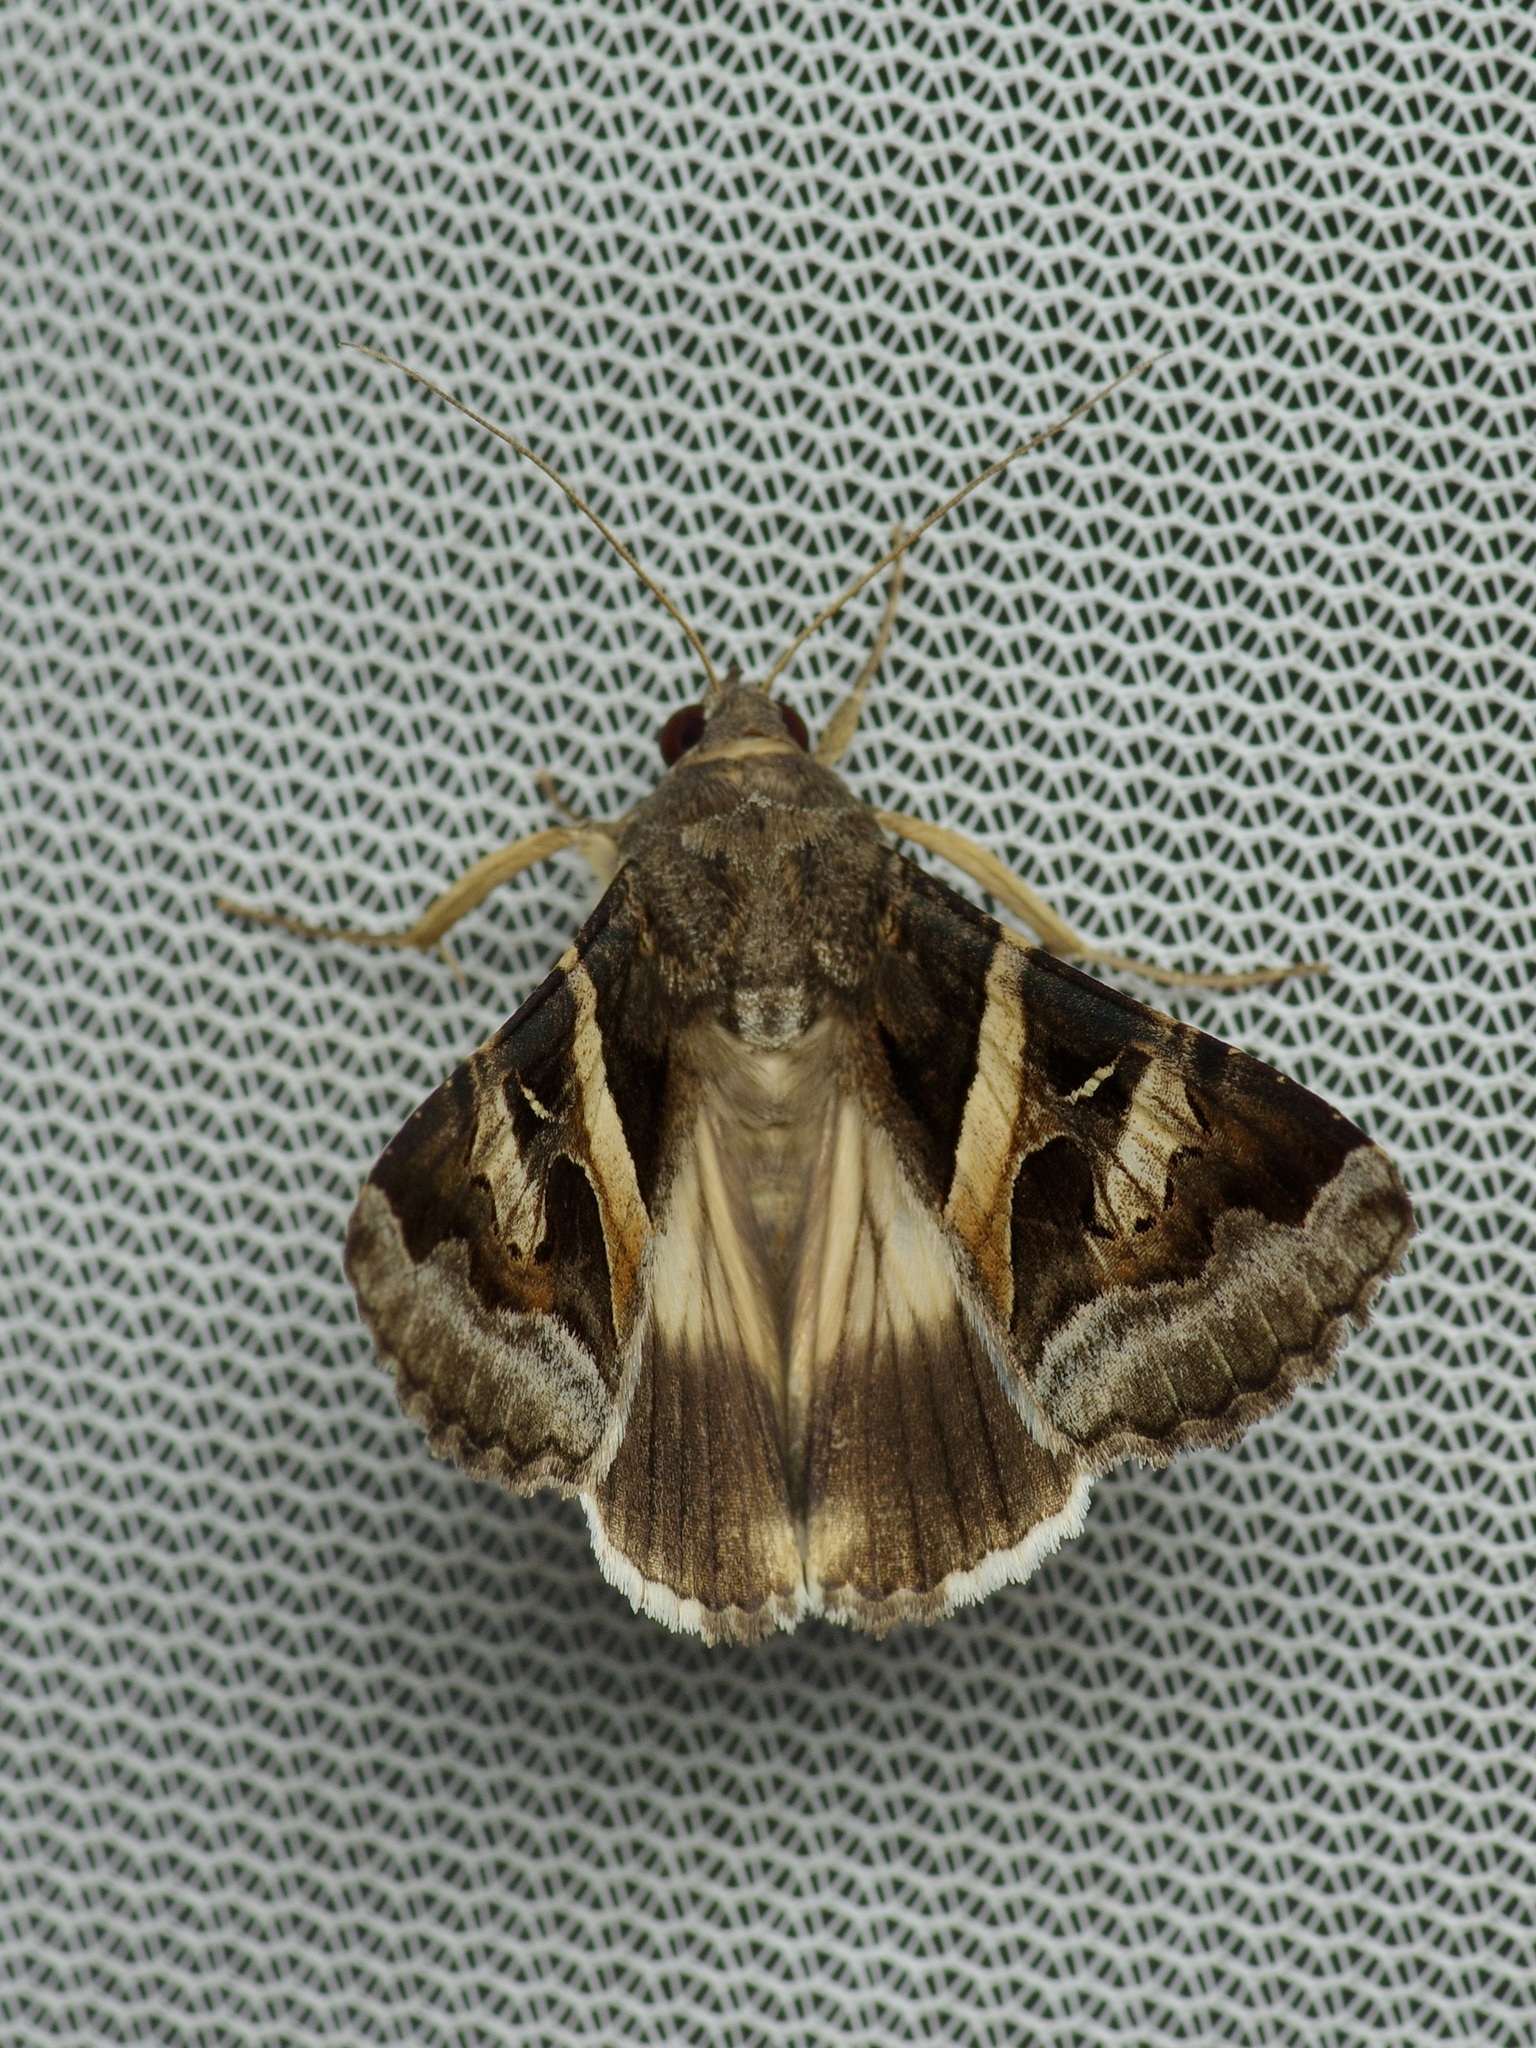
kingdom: Animalia
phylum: Arthropoda
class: Insecta
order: Lepidoptera
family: Erebidae
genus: Melipotis
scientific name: Melipotis indomita
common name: Moth
